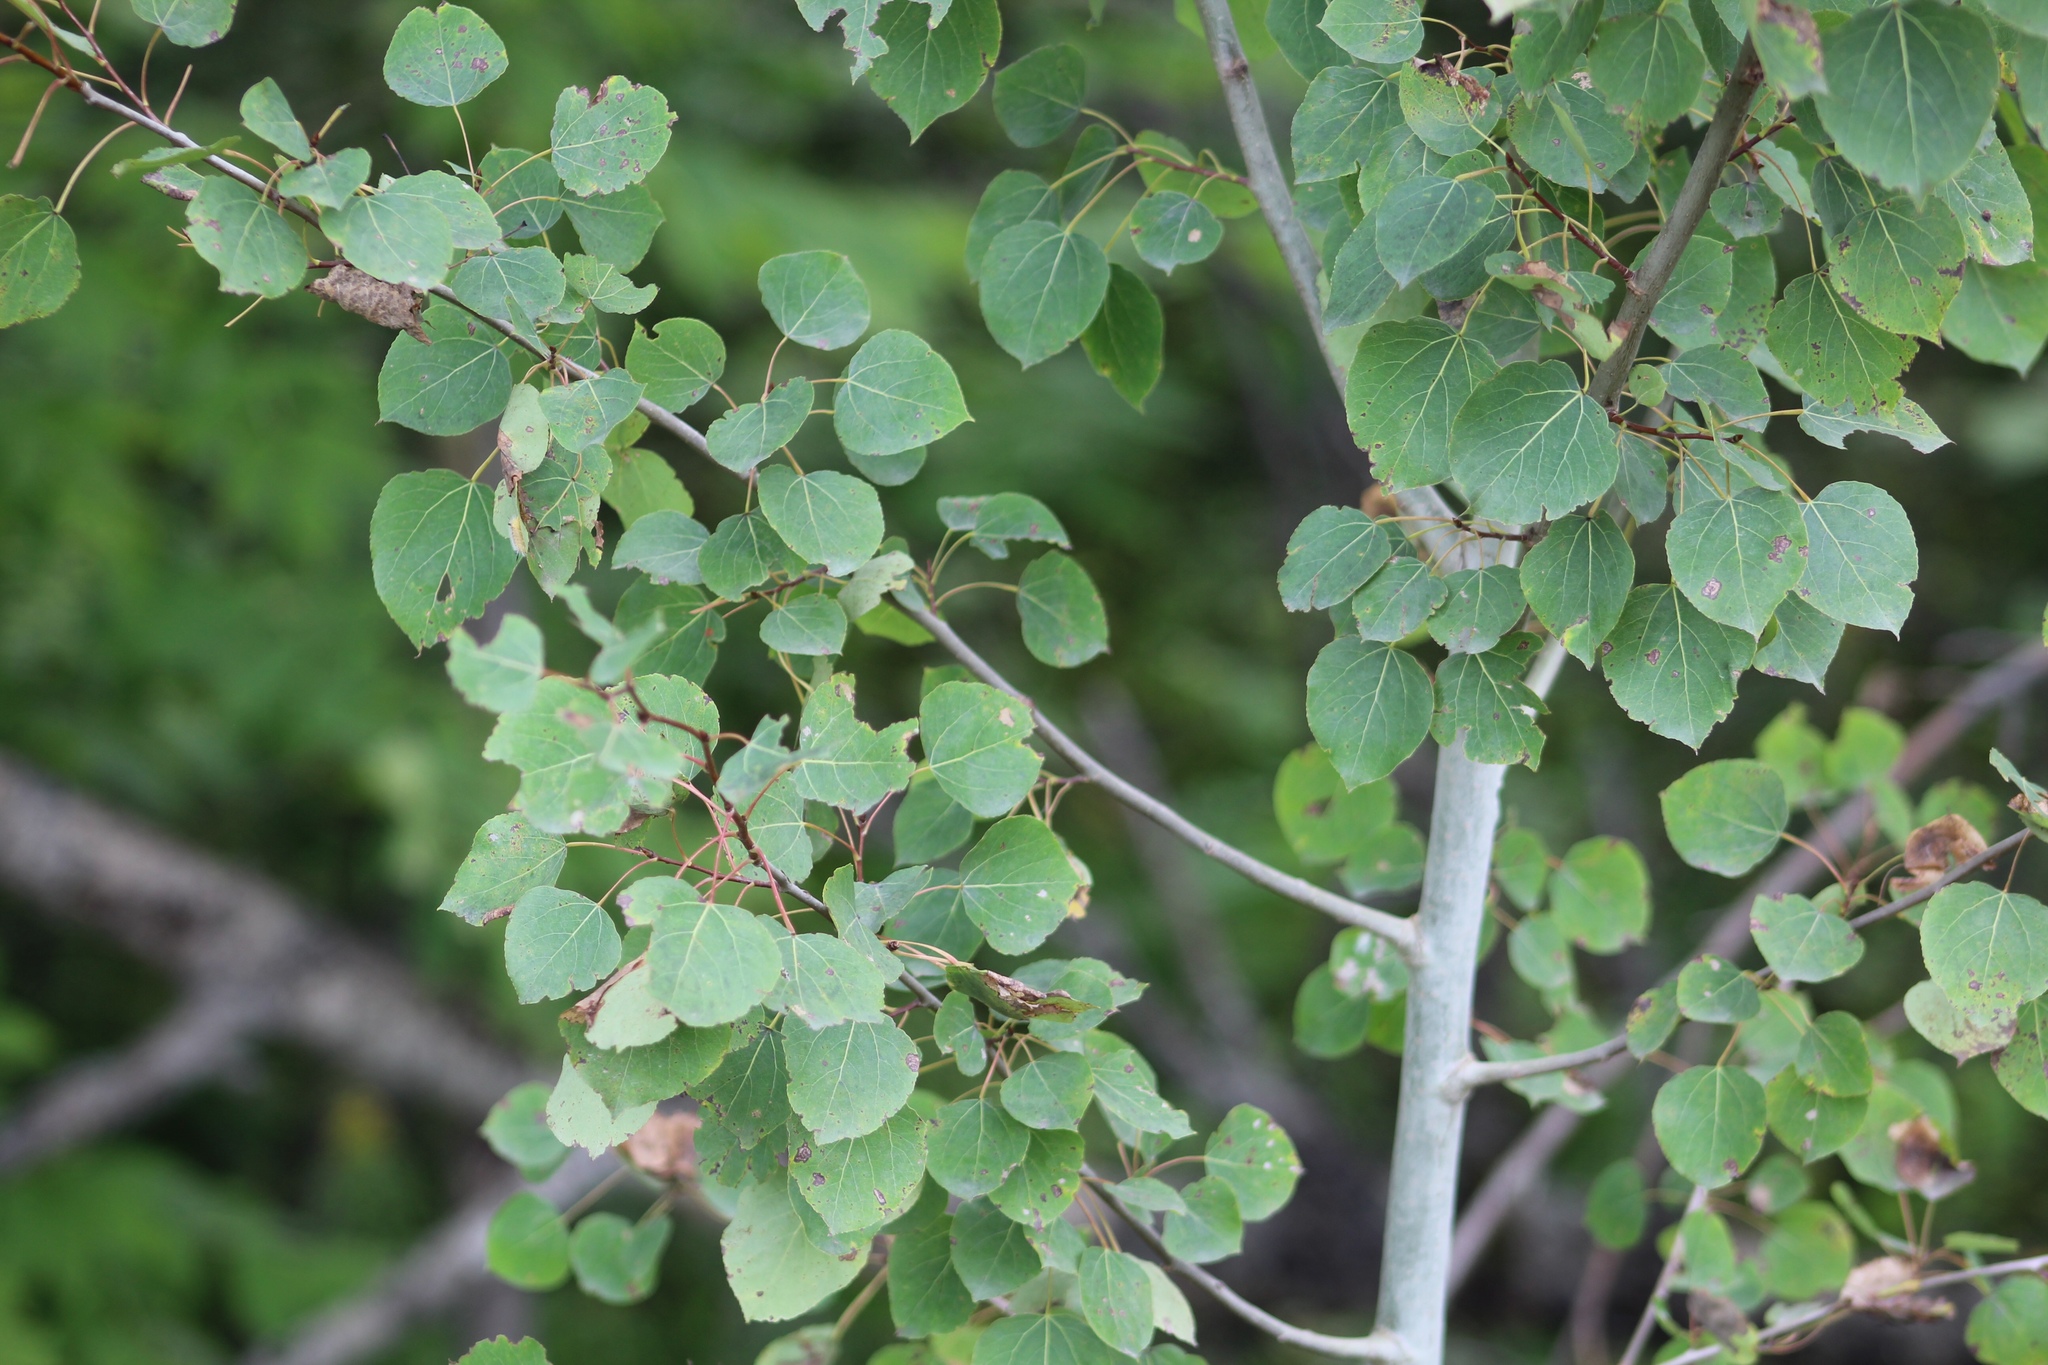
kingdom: Plantae
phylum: Tracheophyta
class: Magnoliopsida
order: Malpighiales
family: Salicaceae
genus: Populus
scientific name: Populus tremuloides
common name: Quaking aspen
